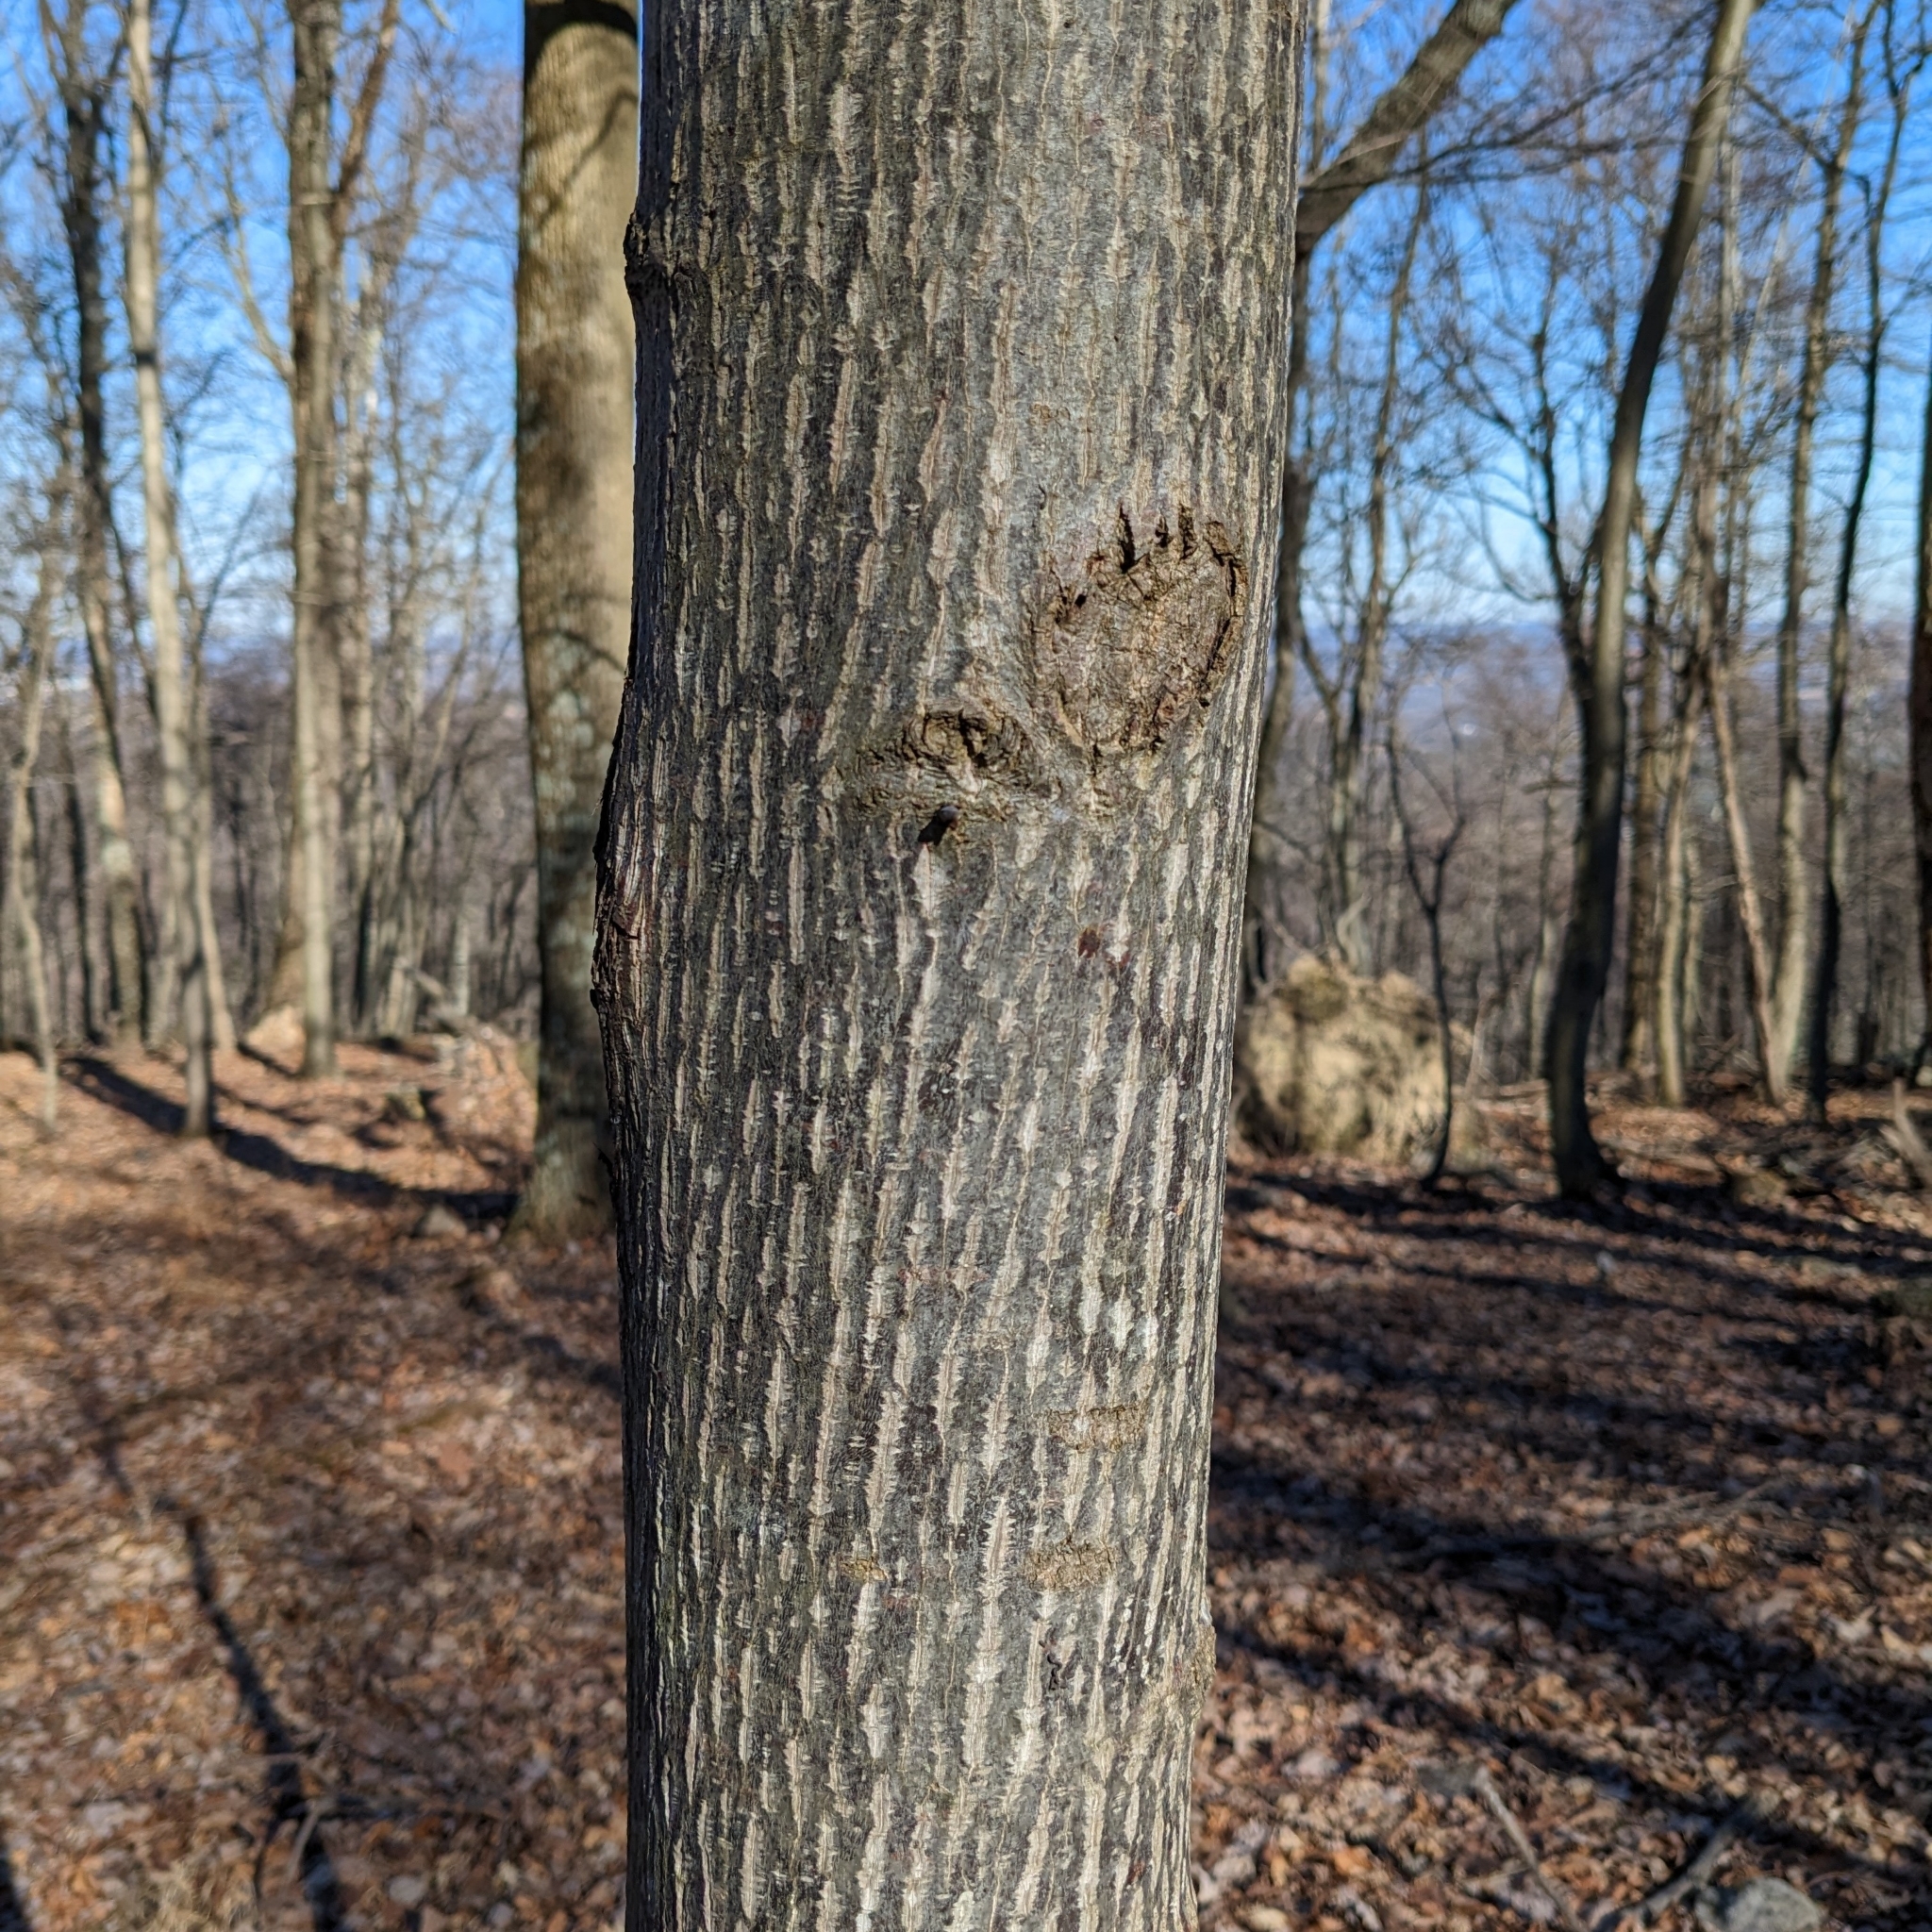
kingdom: Plantae
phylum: Tracheophyta
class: Magnoliopsida
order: Magnoliales
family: Magnoliaceae
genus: Liriodendron
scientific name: Liriodendron tulipifera
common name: Tulip tree
